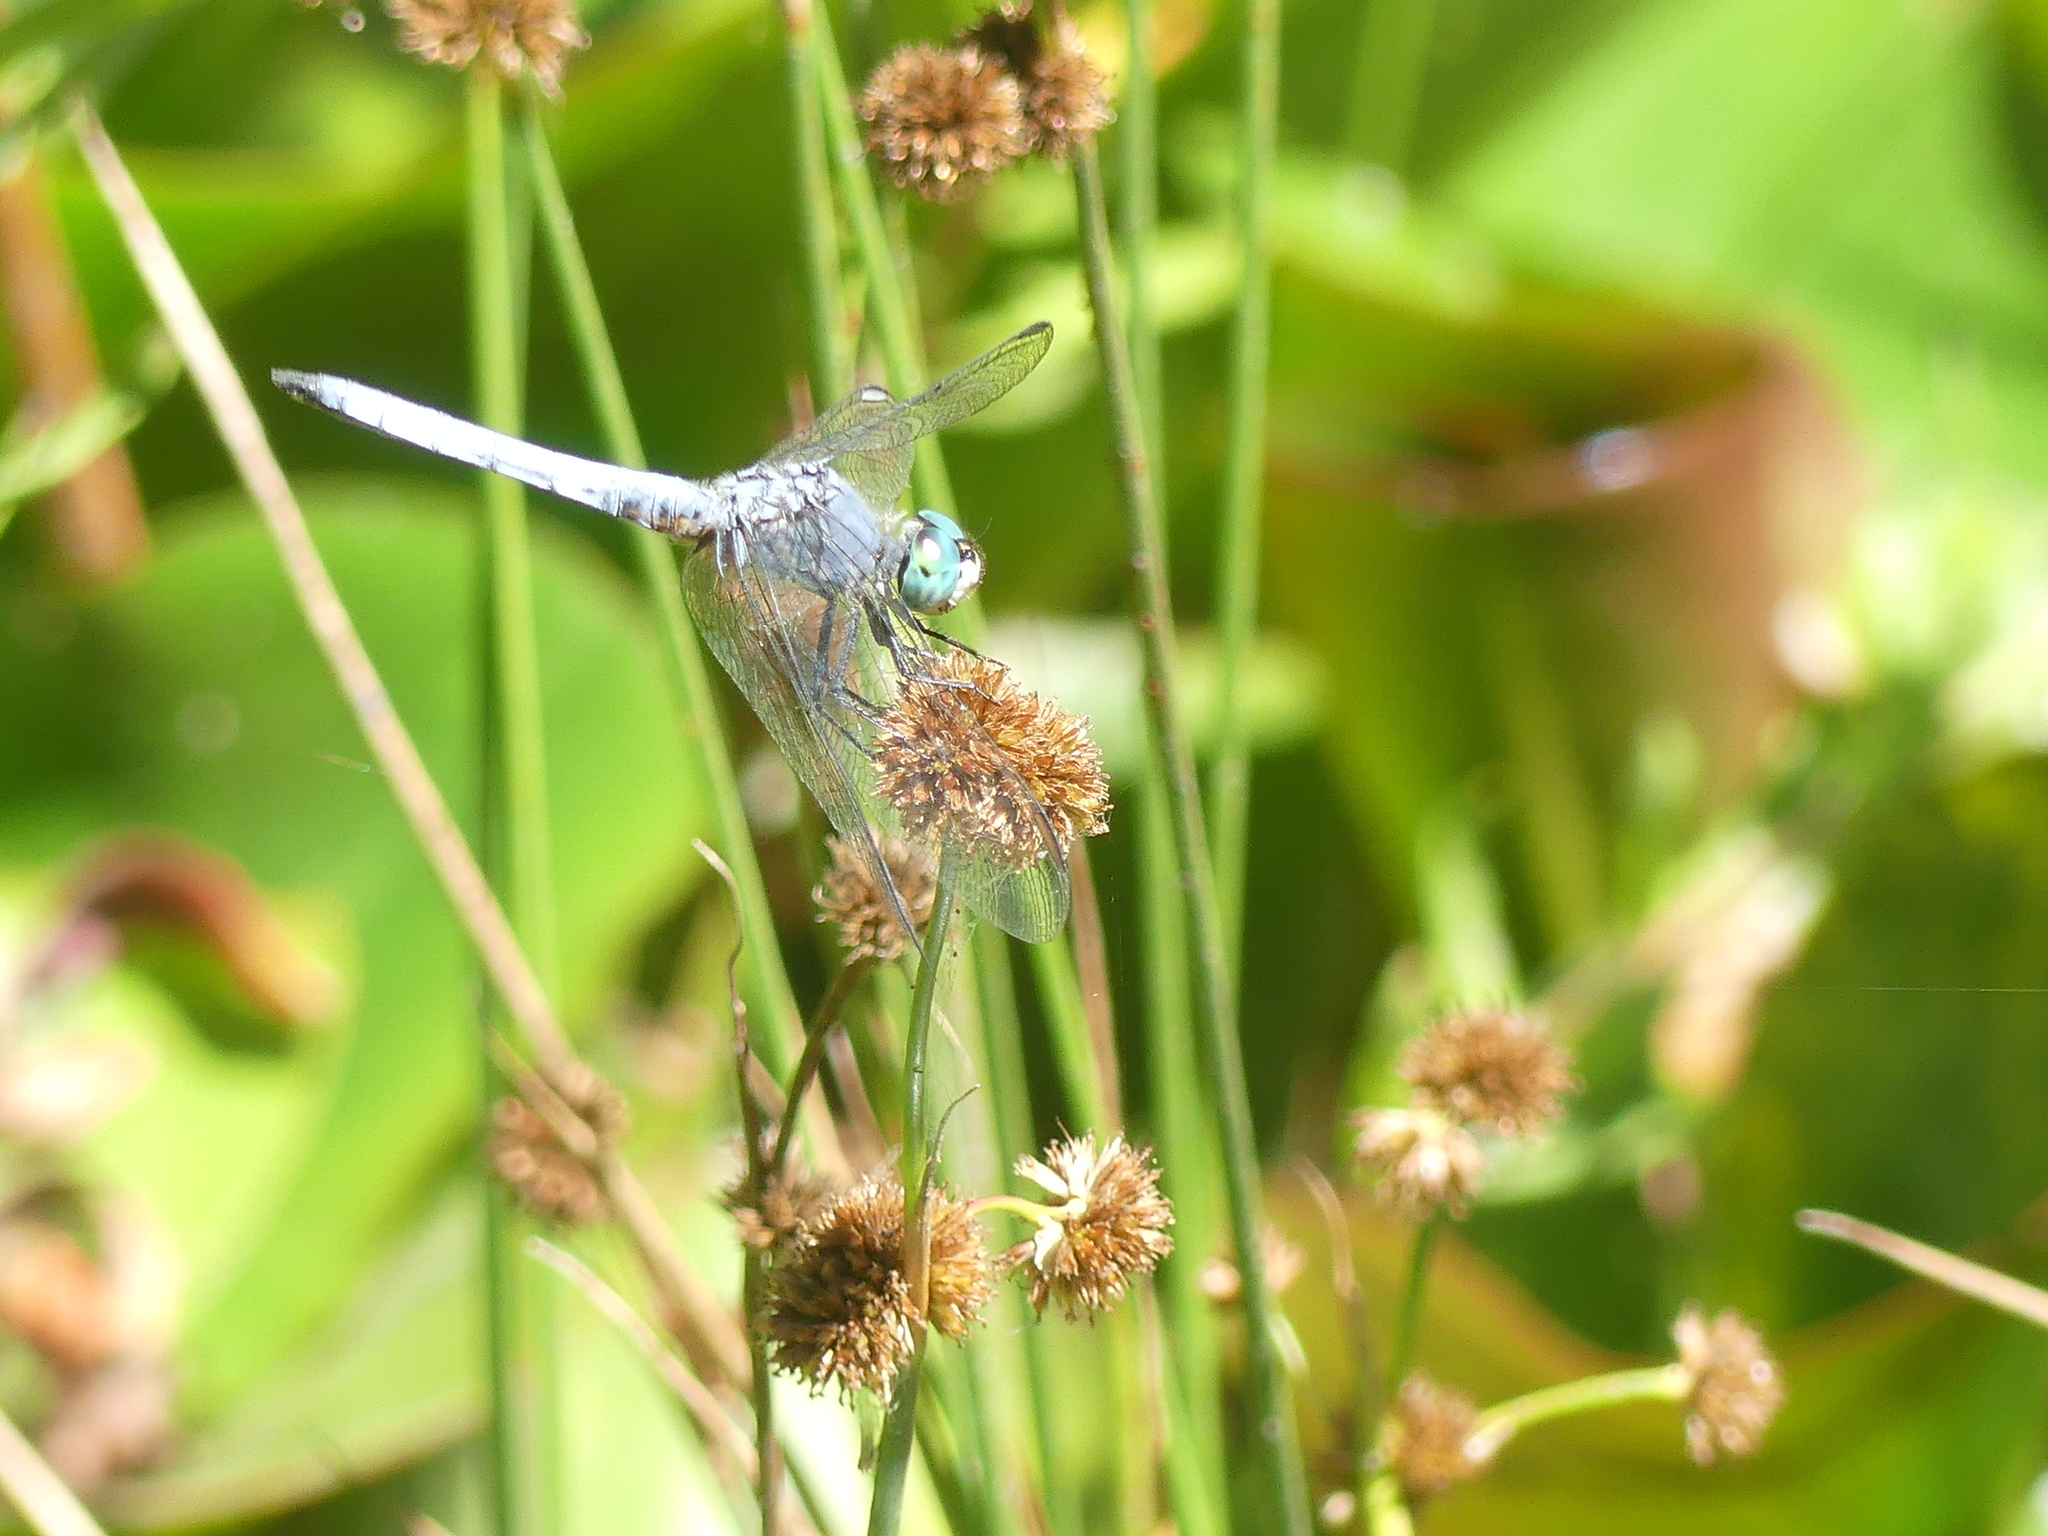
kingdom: Animalia
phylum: Arthropoda
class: Insecta
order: Odonata
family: Libellulidae
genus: Pachydiplax
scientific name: Pachydiplax longipennis
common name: Blue dasher
